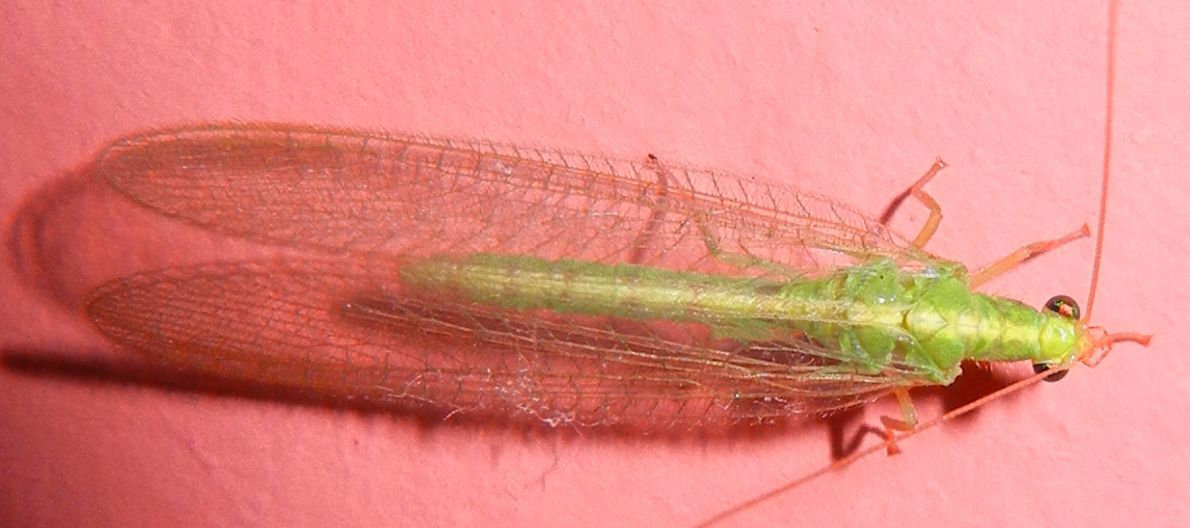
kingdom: Animalia
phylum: Arthropoda
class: Insecta
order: Neuroptera
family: Chrysopidae
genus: Chrysoperla
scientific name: Chrysoperla
